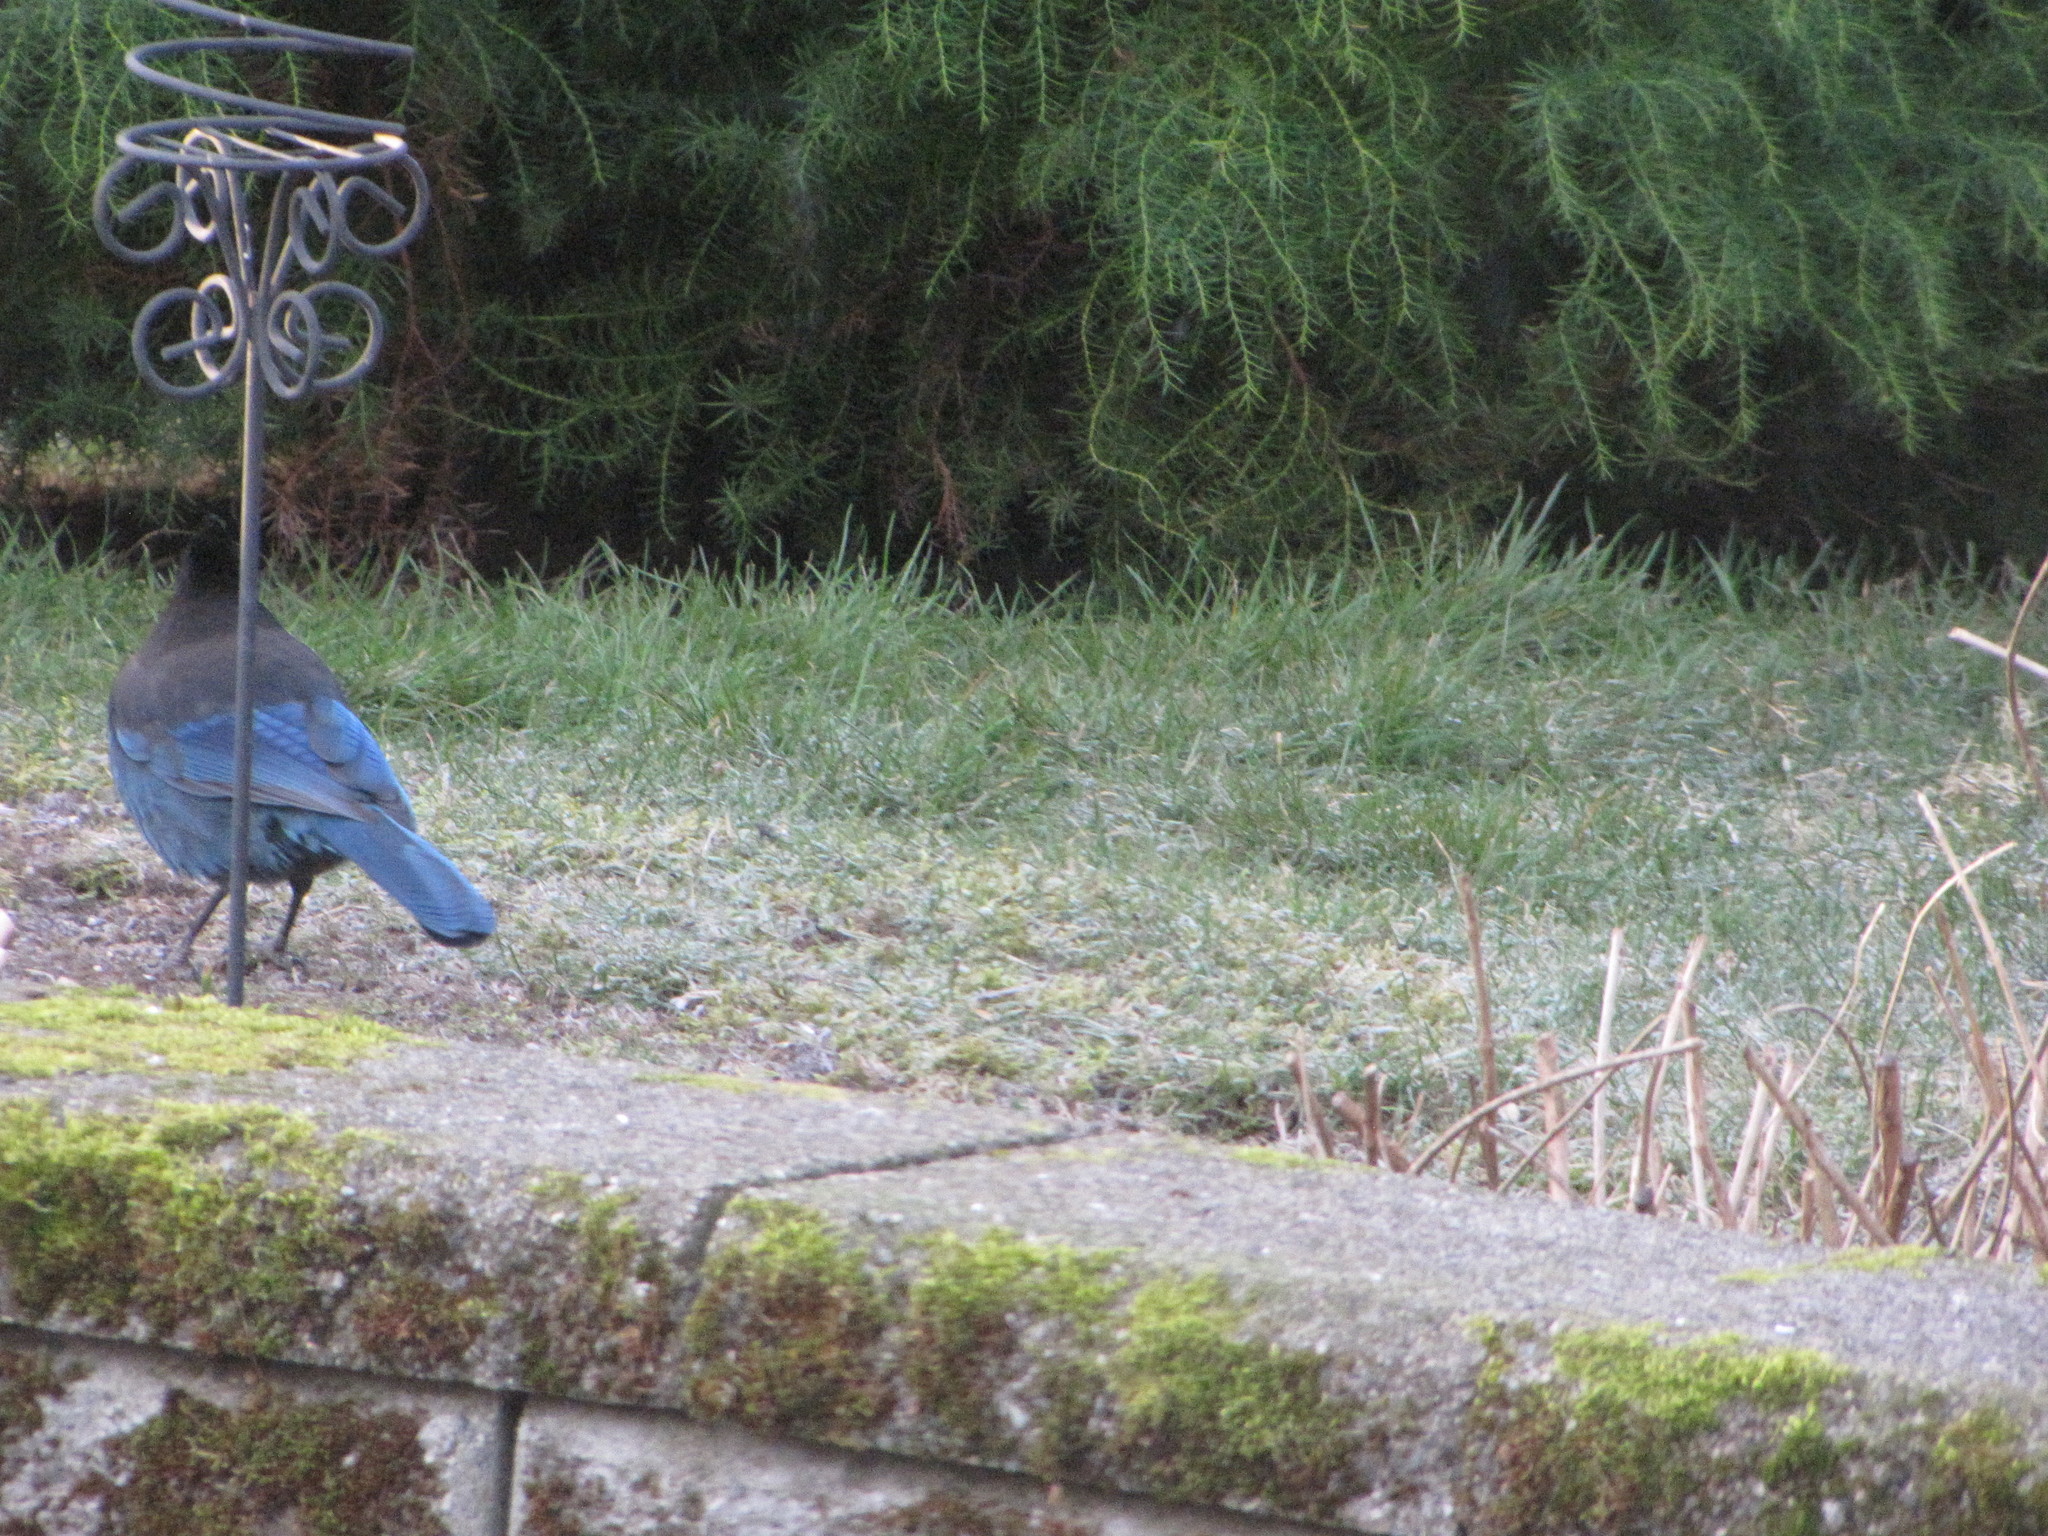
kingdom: Animalia
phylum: Chordata
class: Aves
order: Passeriformes
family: Corvidae
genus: Cyanocitta
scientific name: Cyanocitta stelleri
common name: Steller's jay
